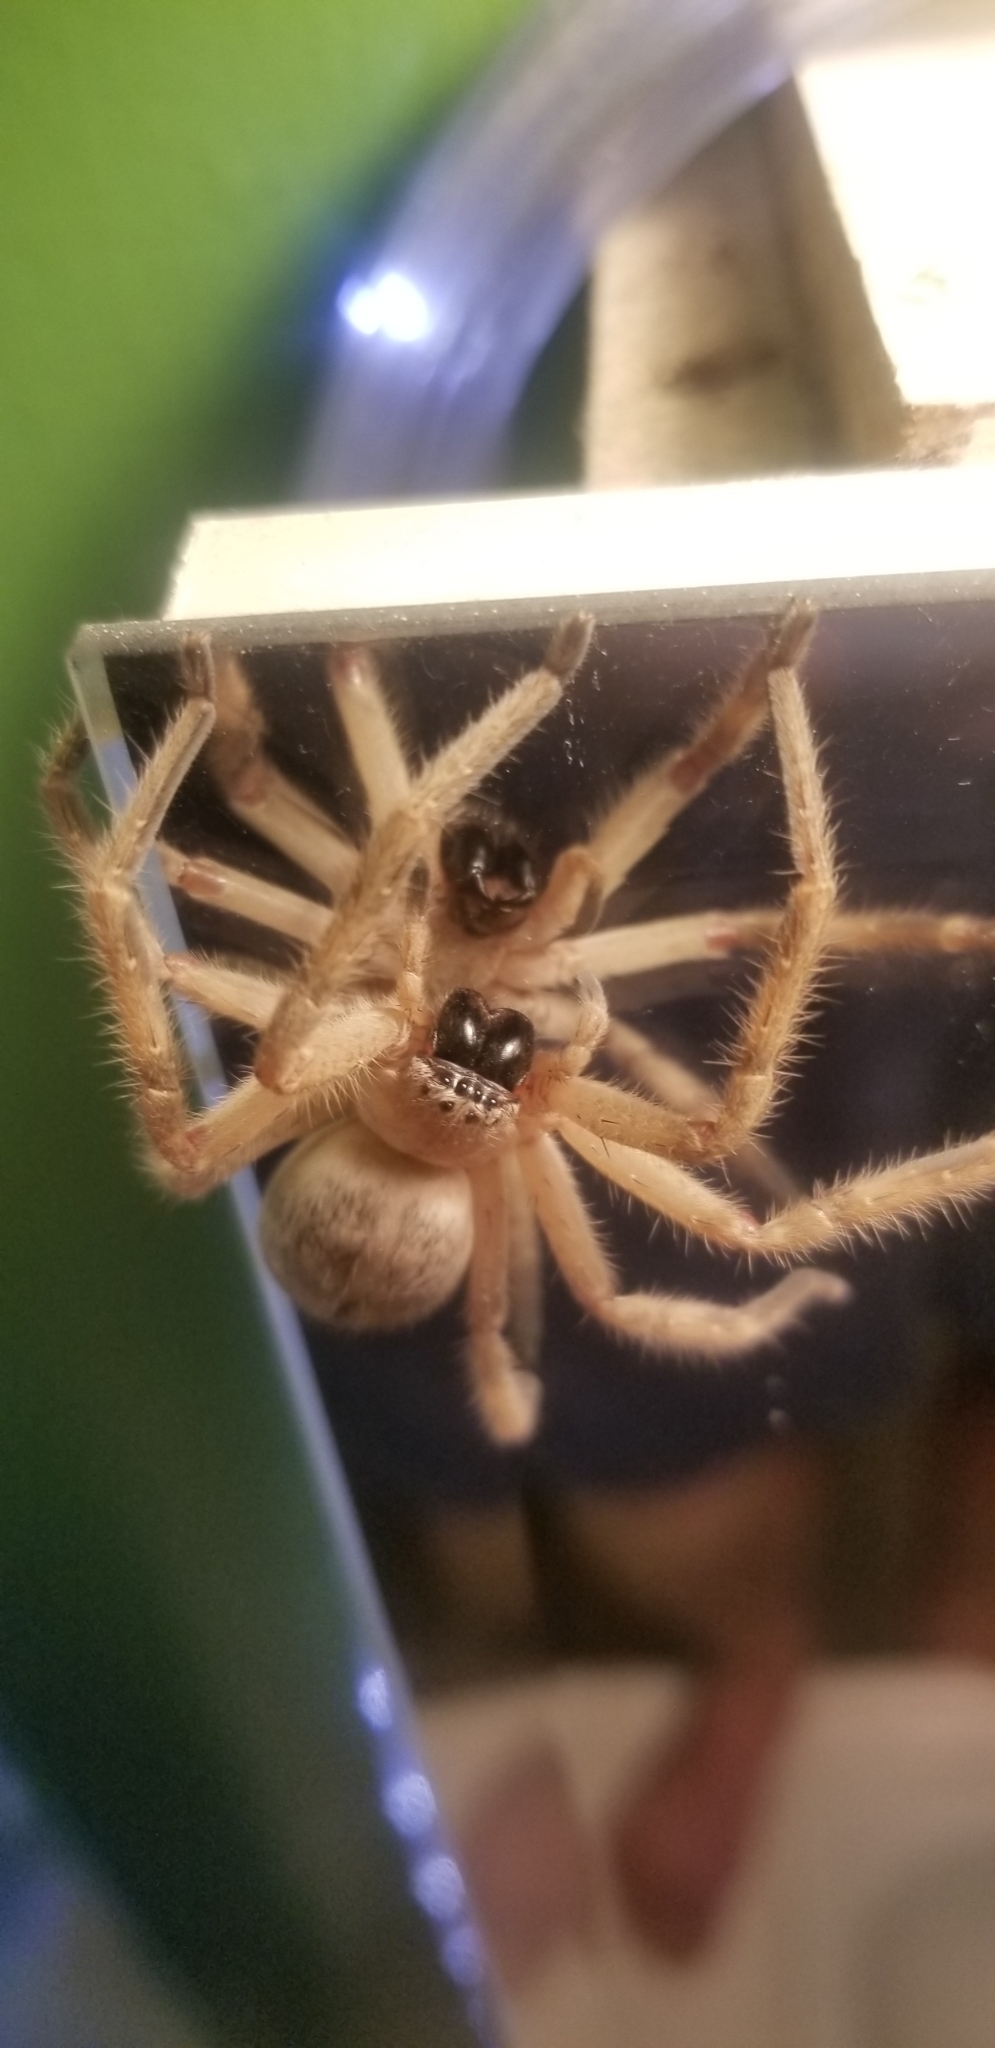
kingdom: Animalia
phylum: Arthropoda
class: Arachnida
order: Araneae
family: Sparassidae
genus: Olios
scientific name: Olios giganteus
